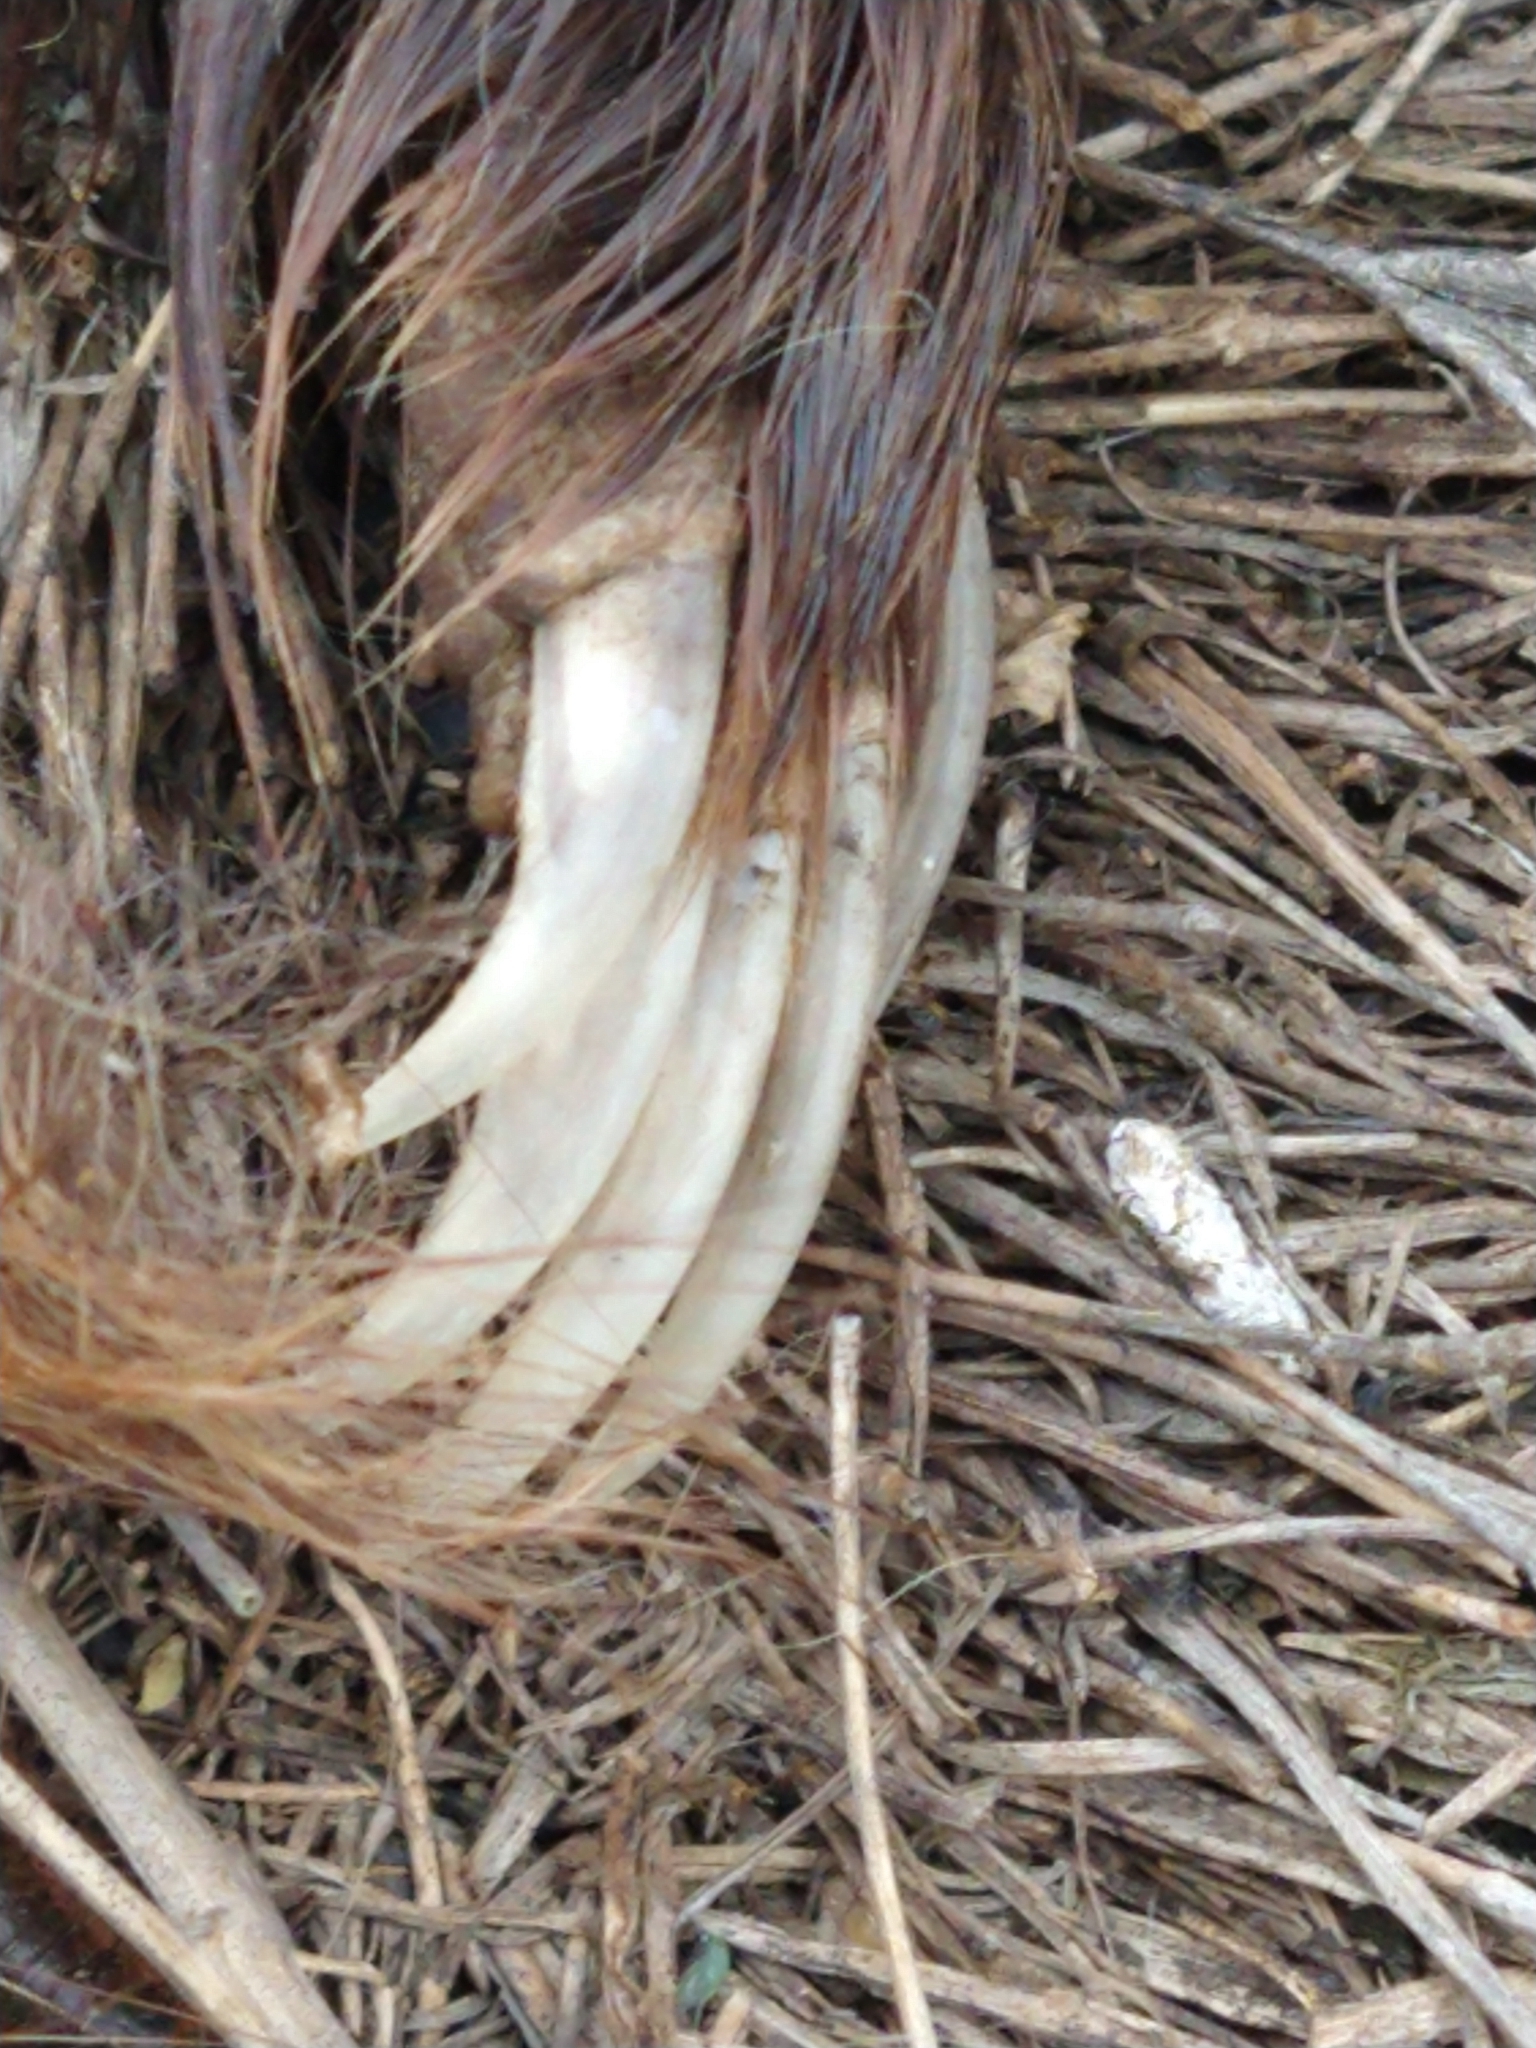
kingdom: Animalia
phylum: Chordata
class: Mammalia
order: Carnivora
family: Mephitidae
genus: Conepatus
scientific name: Conepatus chinga
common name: Molina's hog-nosed skunk
